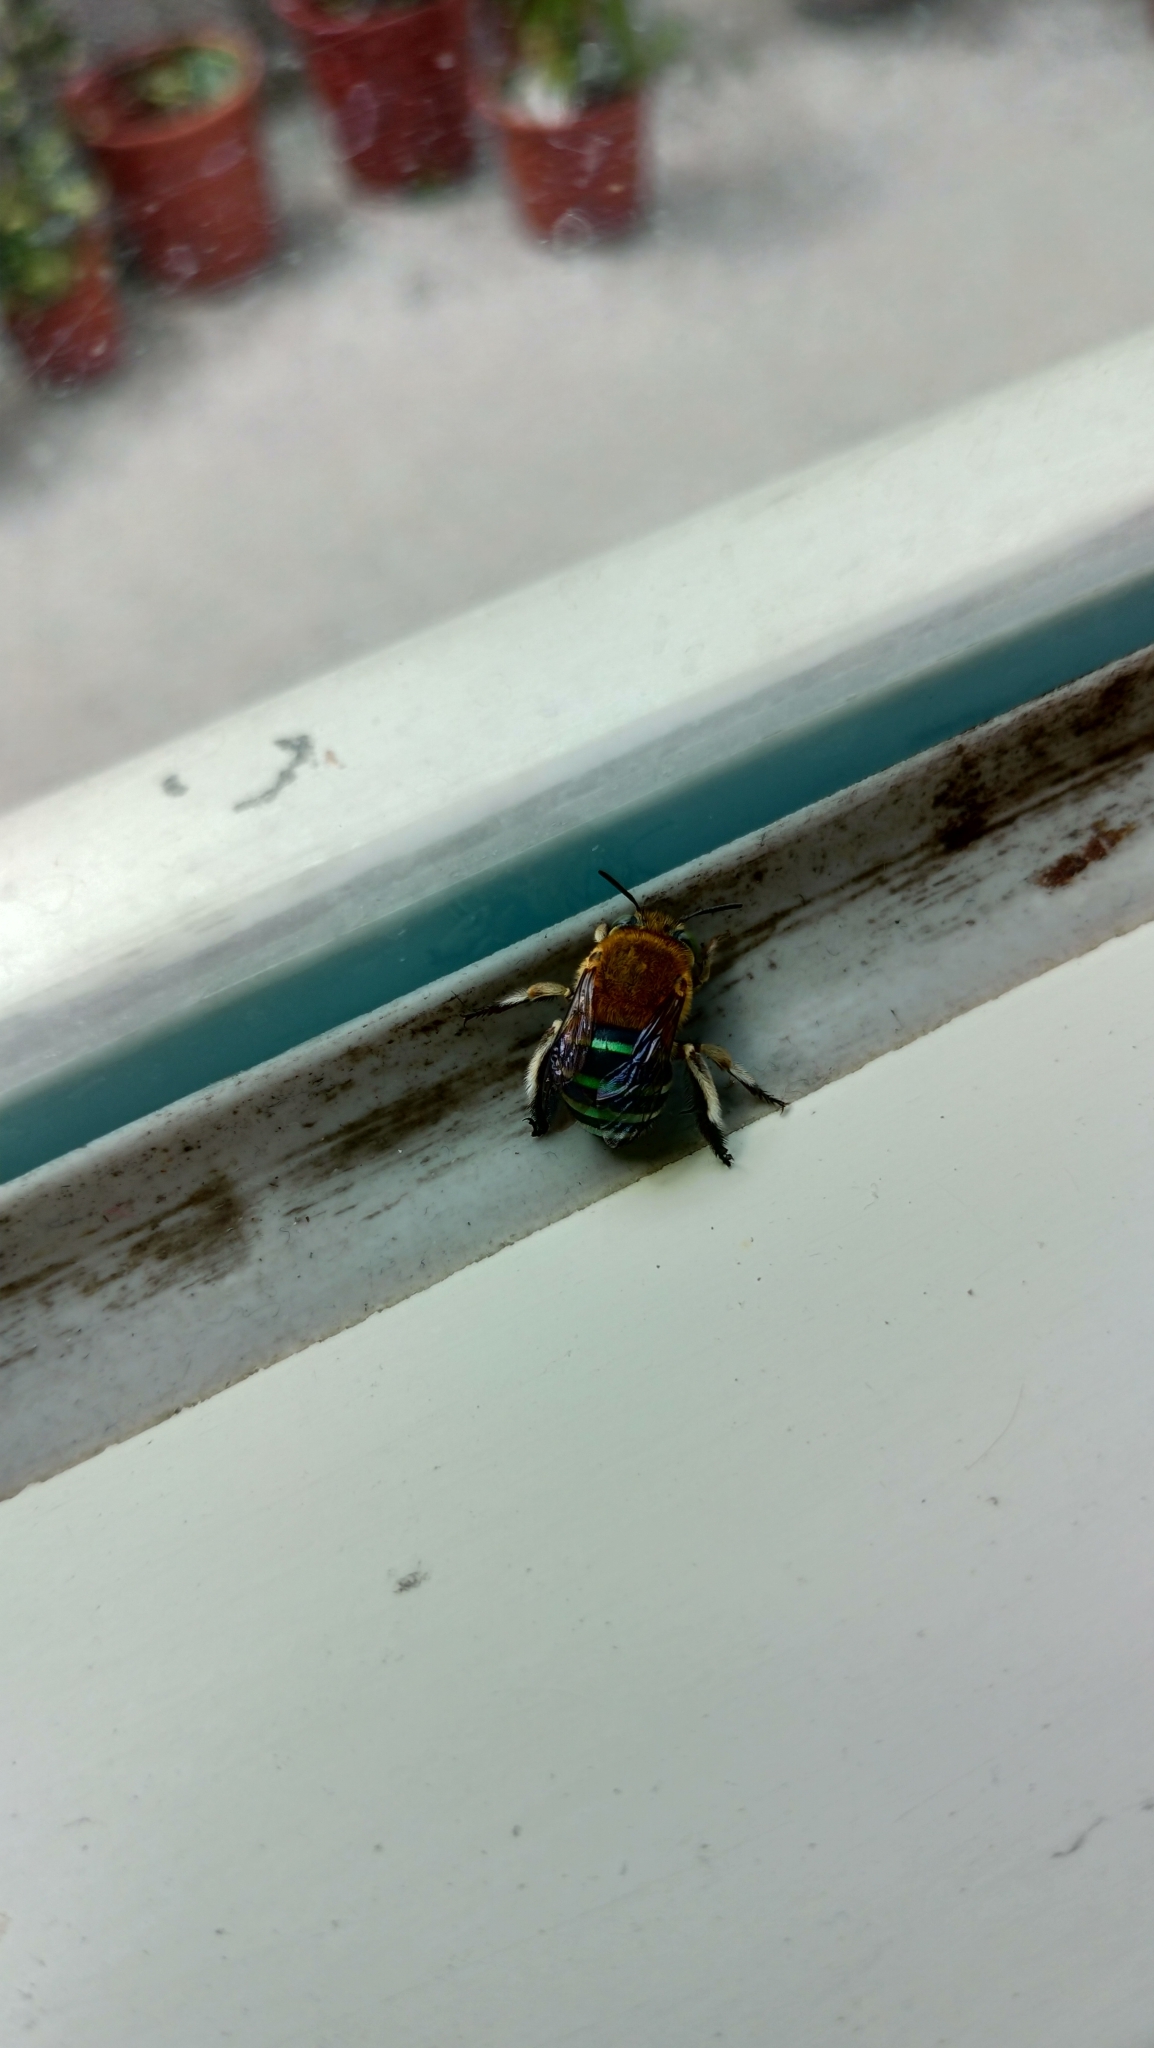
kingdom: Animalia
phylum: Arthropoda
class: Insecta
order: Hymenoptera
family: Apidae
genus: Amegilla
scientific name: Amegilla calceifera
